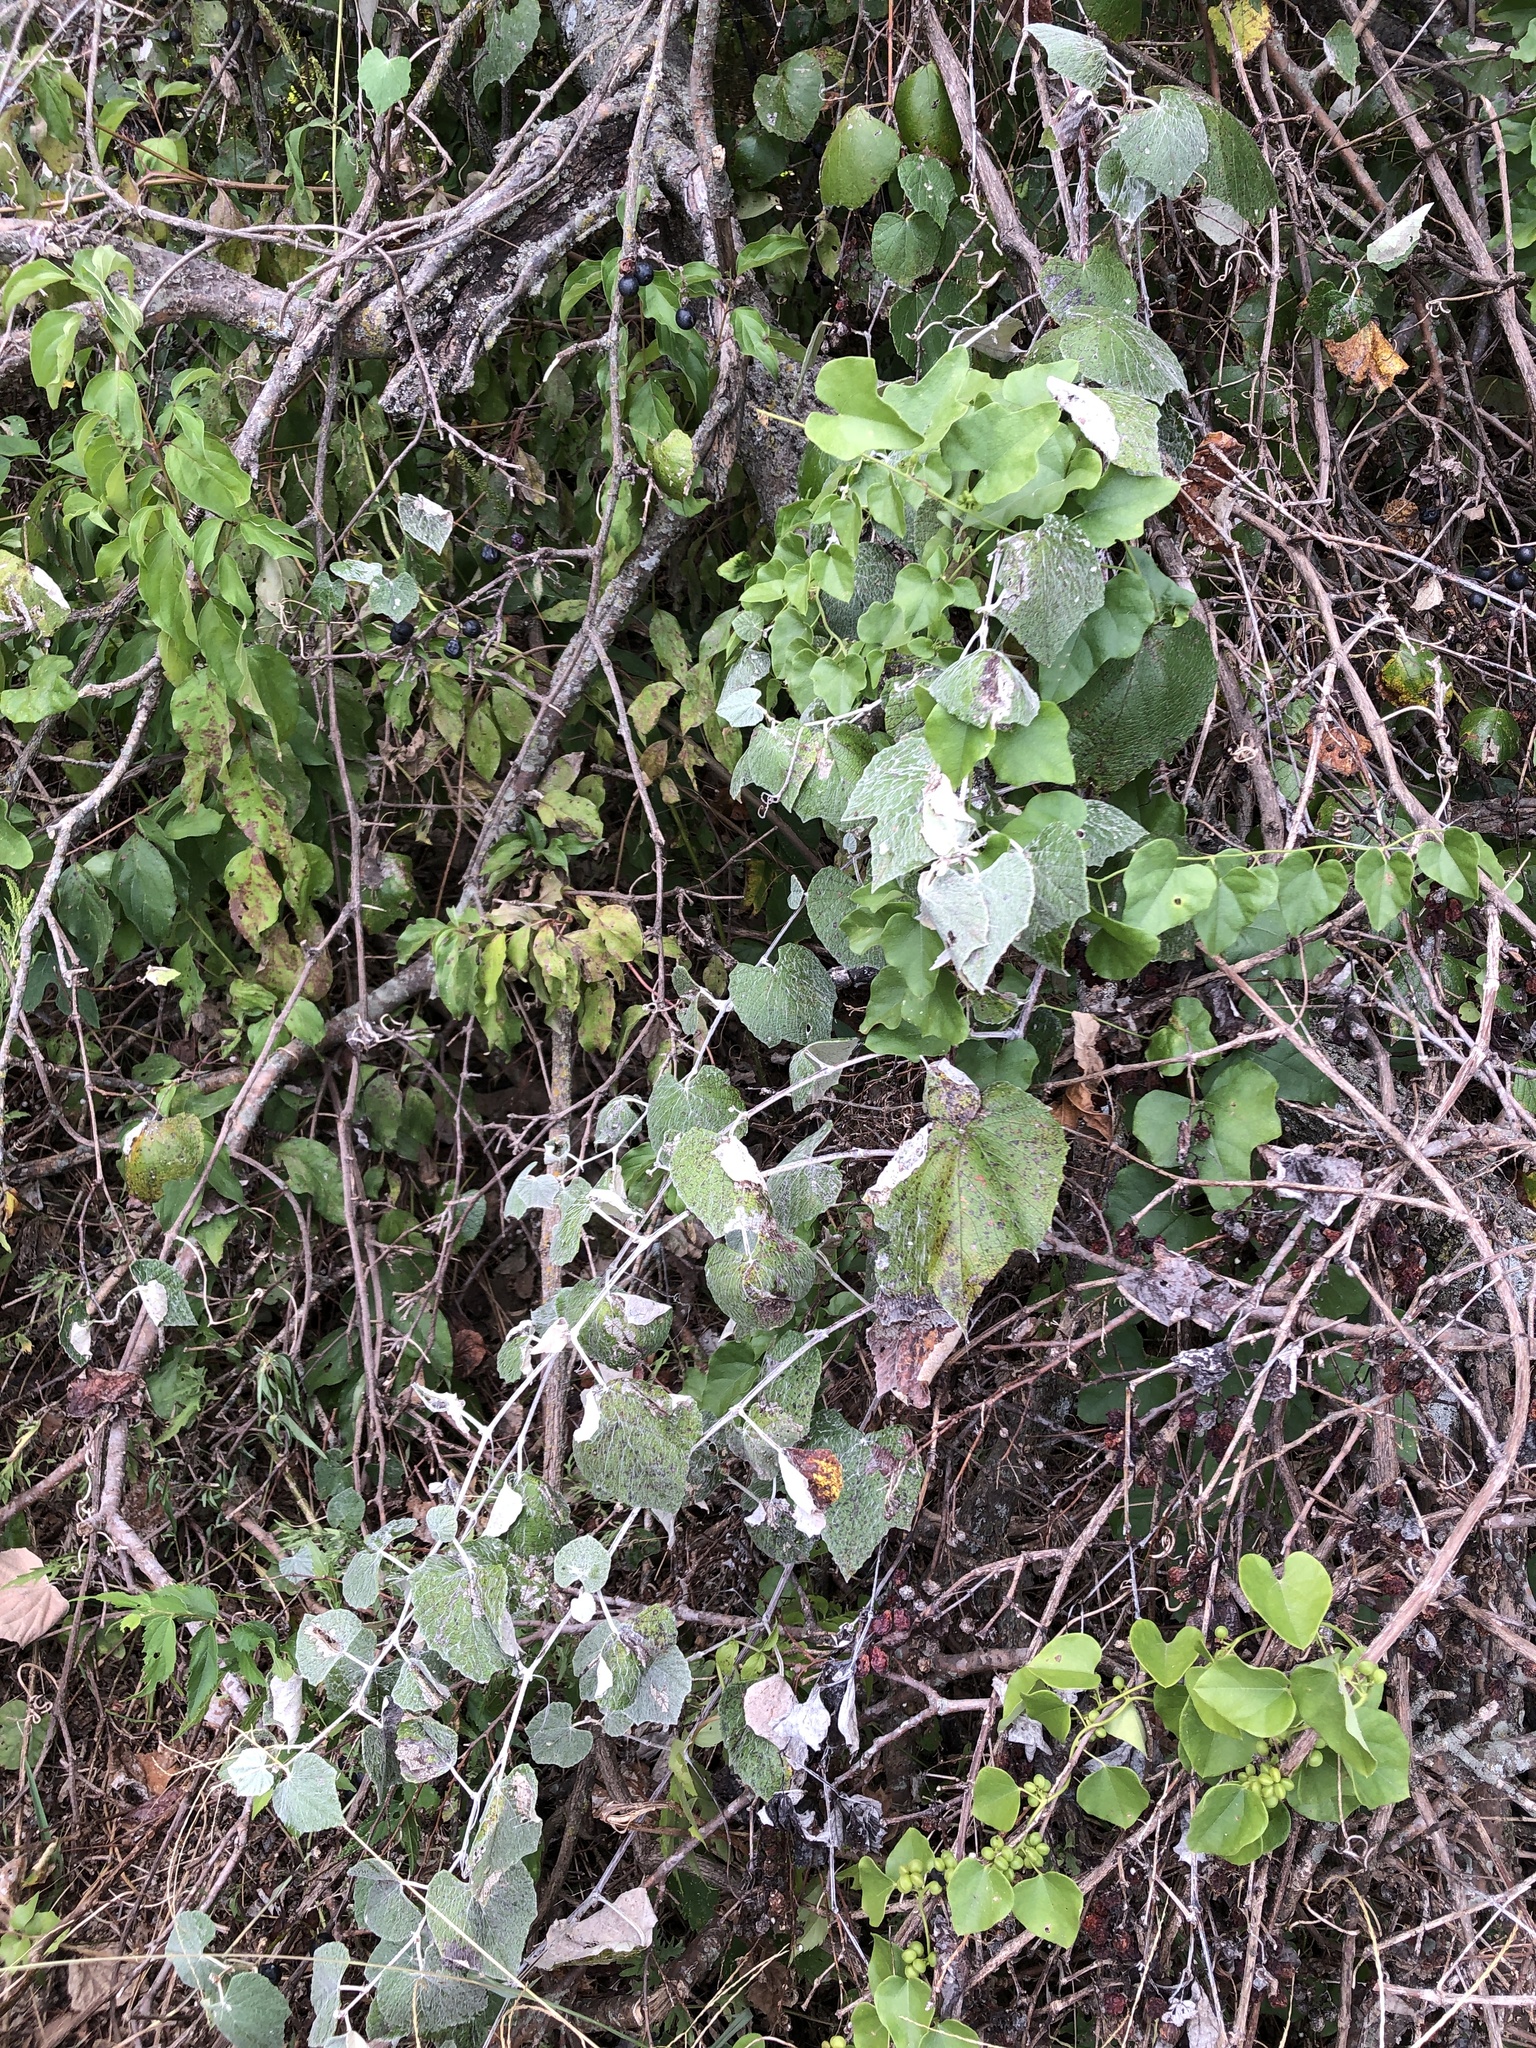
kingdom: Plantae
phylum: Tracheophyta
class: Magnoliopsida
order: Vitales
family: Vitaceae
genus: Vitis
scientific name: Vitis mustangensis
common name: Mustang grape
